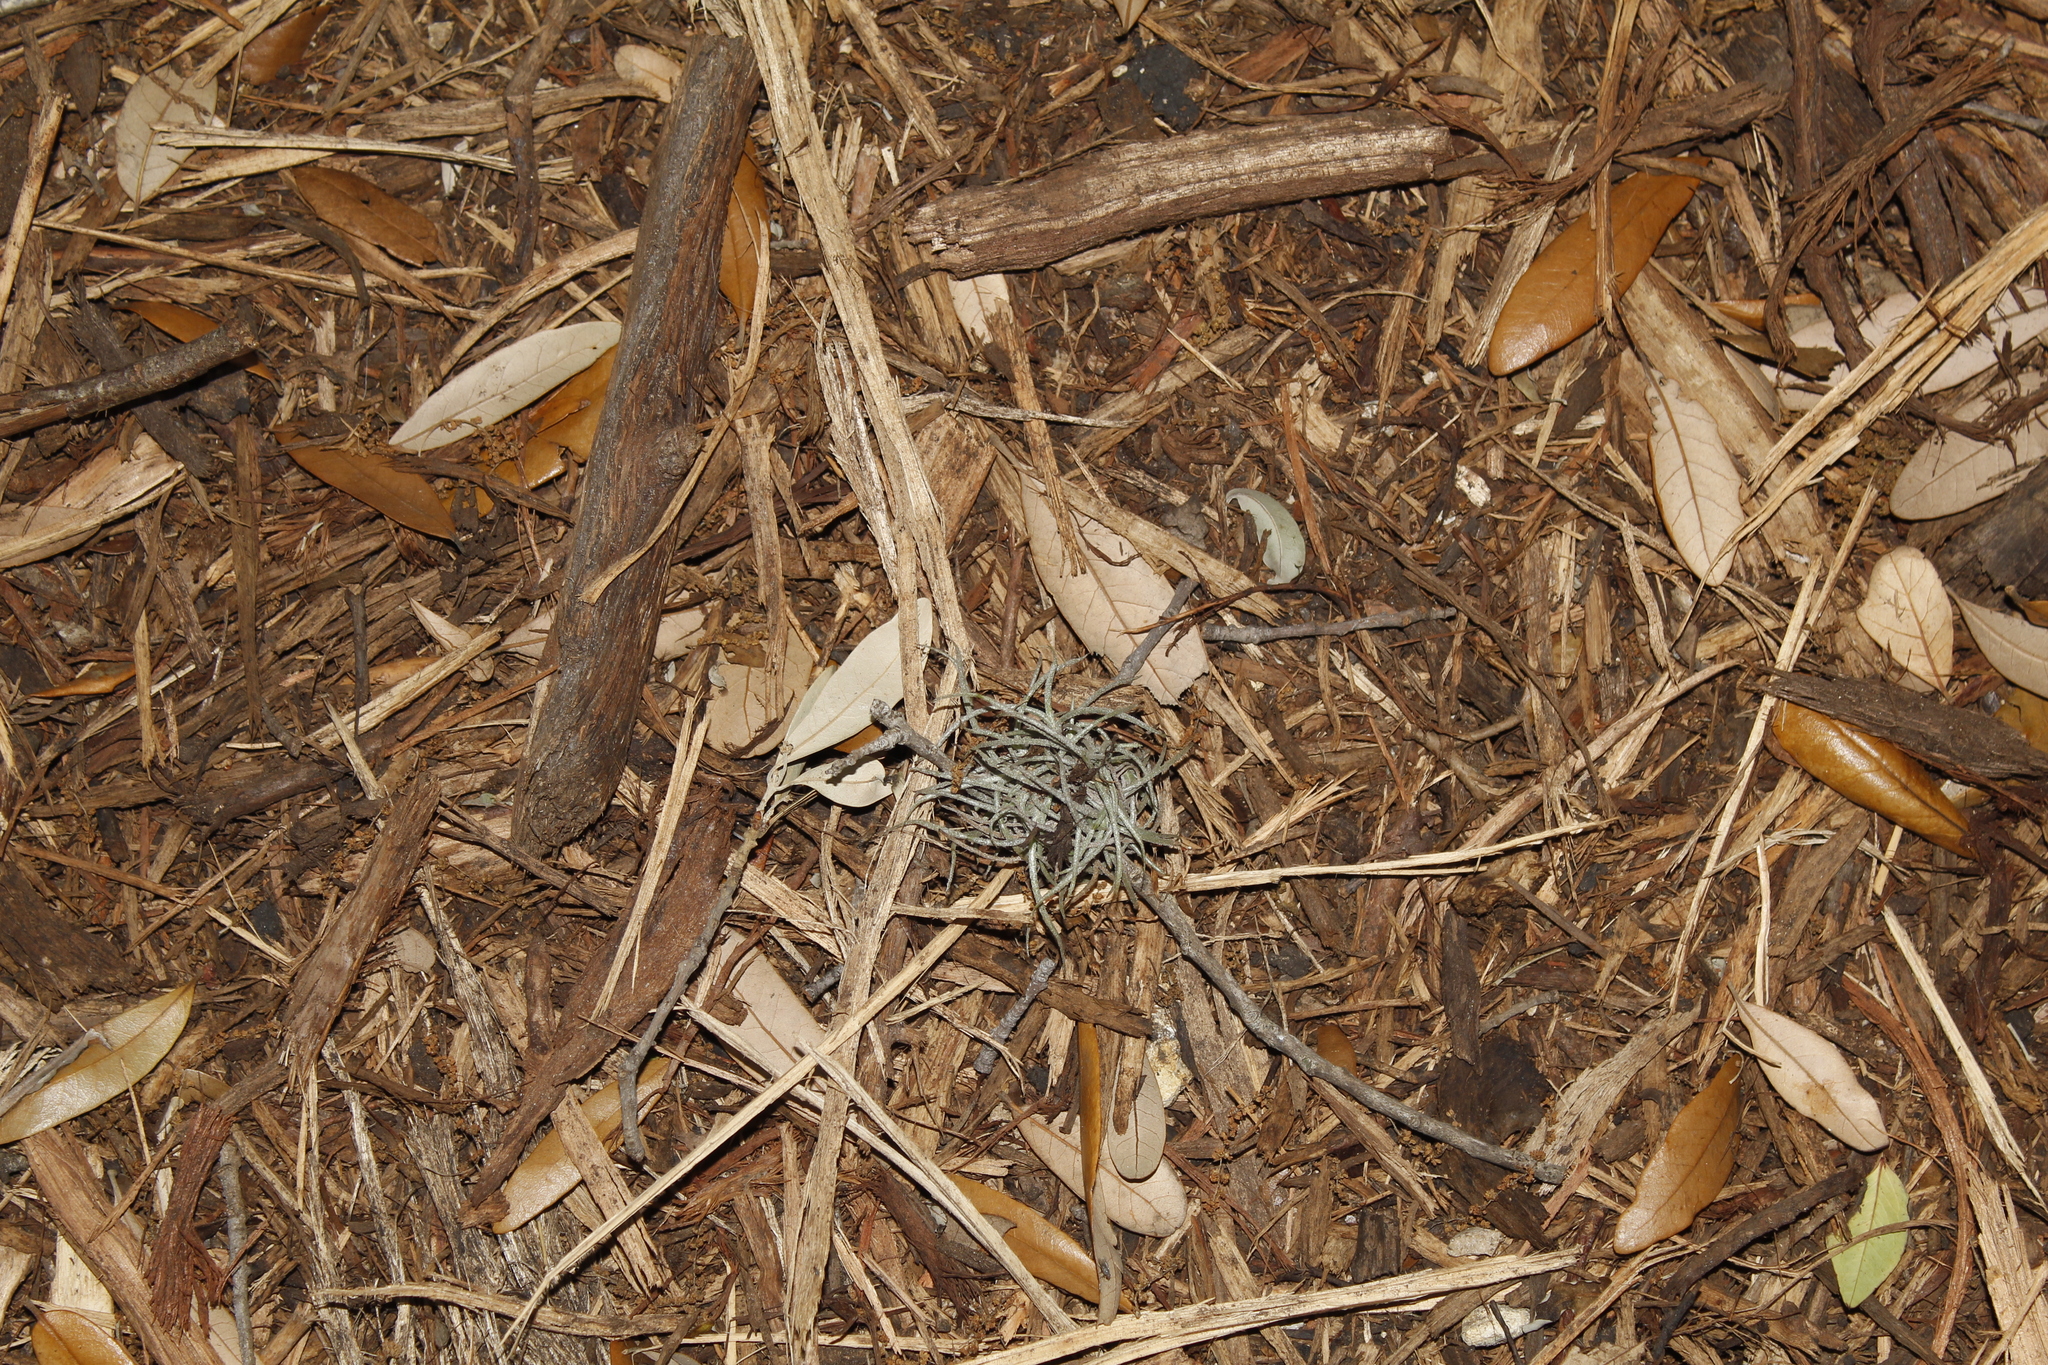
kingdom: Plantae
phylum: Tracheophyta
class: Liliopsida
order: Poales
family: Bromeliaceae
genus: Tillandsia
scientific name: Tillandsia recurvata
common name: Small ballmoss
